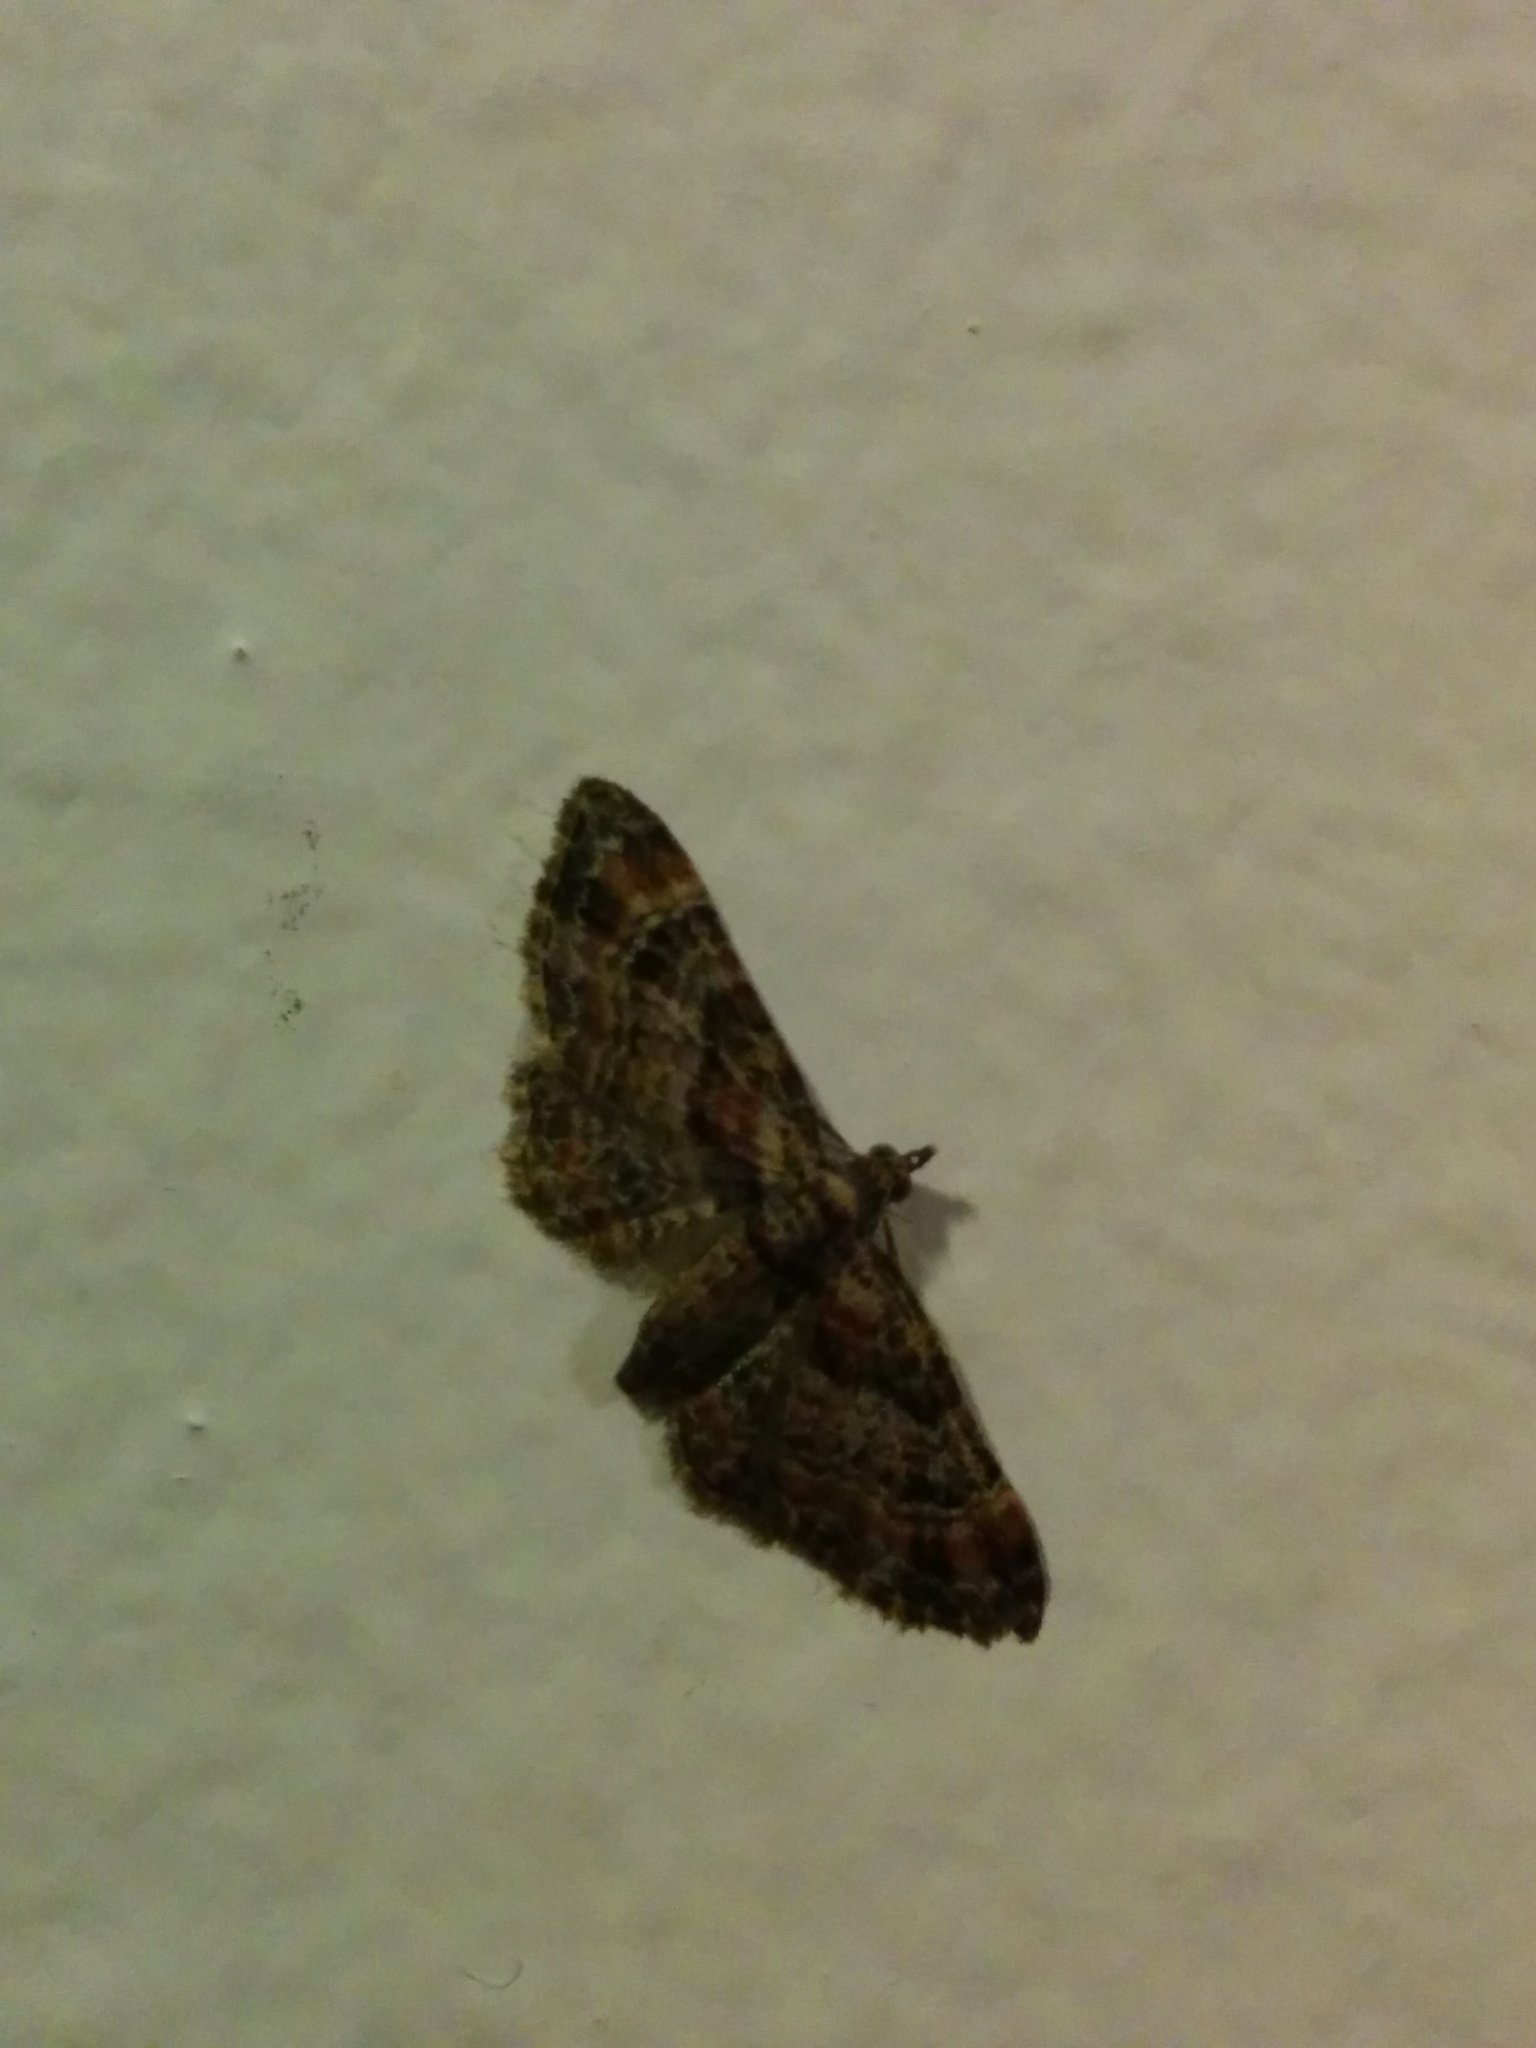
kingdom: Animalia
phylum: Arthropoda
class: Insecta
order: Lepidoptera
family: Geometridae
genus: Gymnoscelis
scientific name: Gymnoscelis rufifasciata
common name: Double-striped pug
